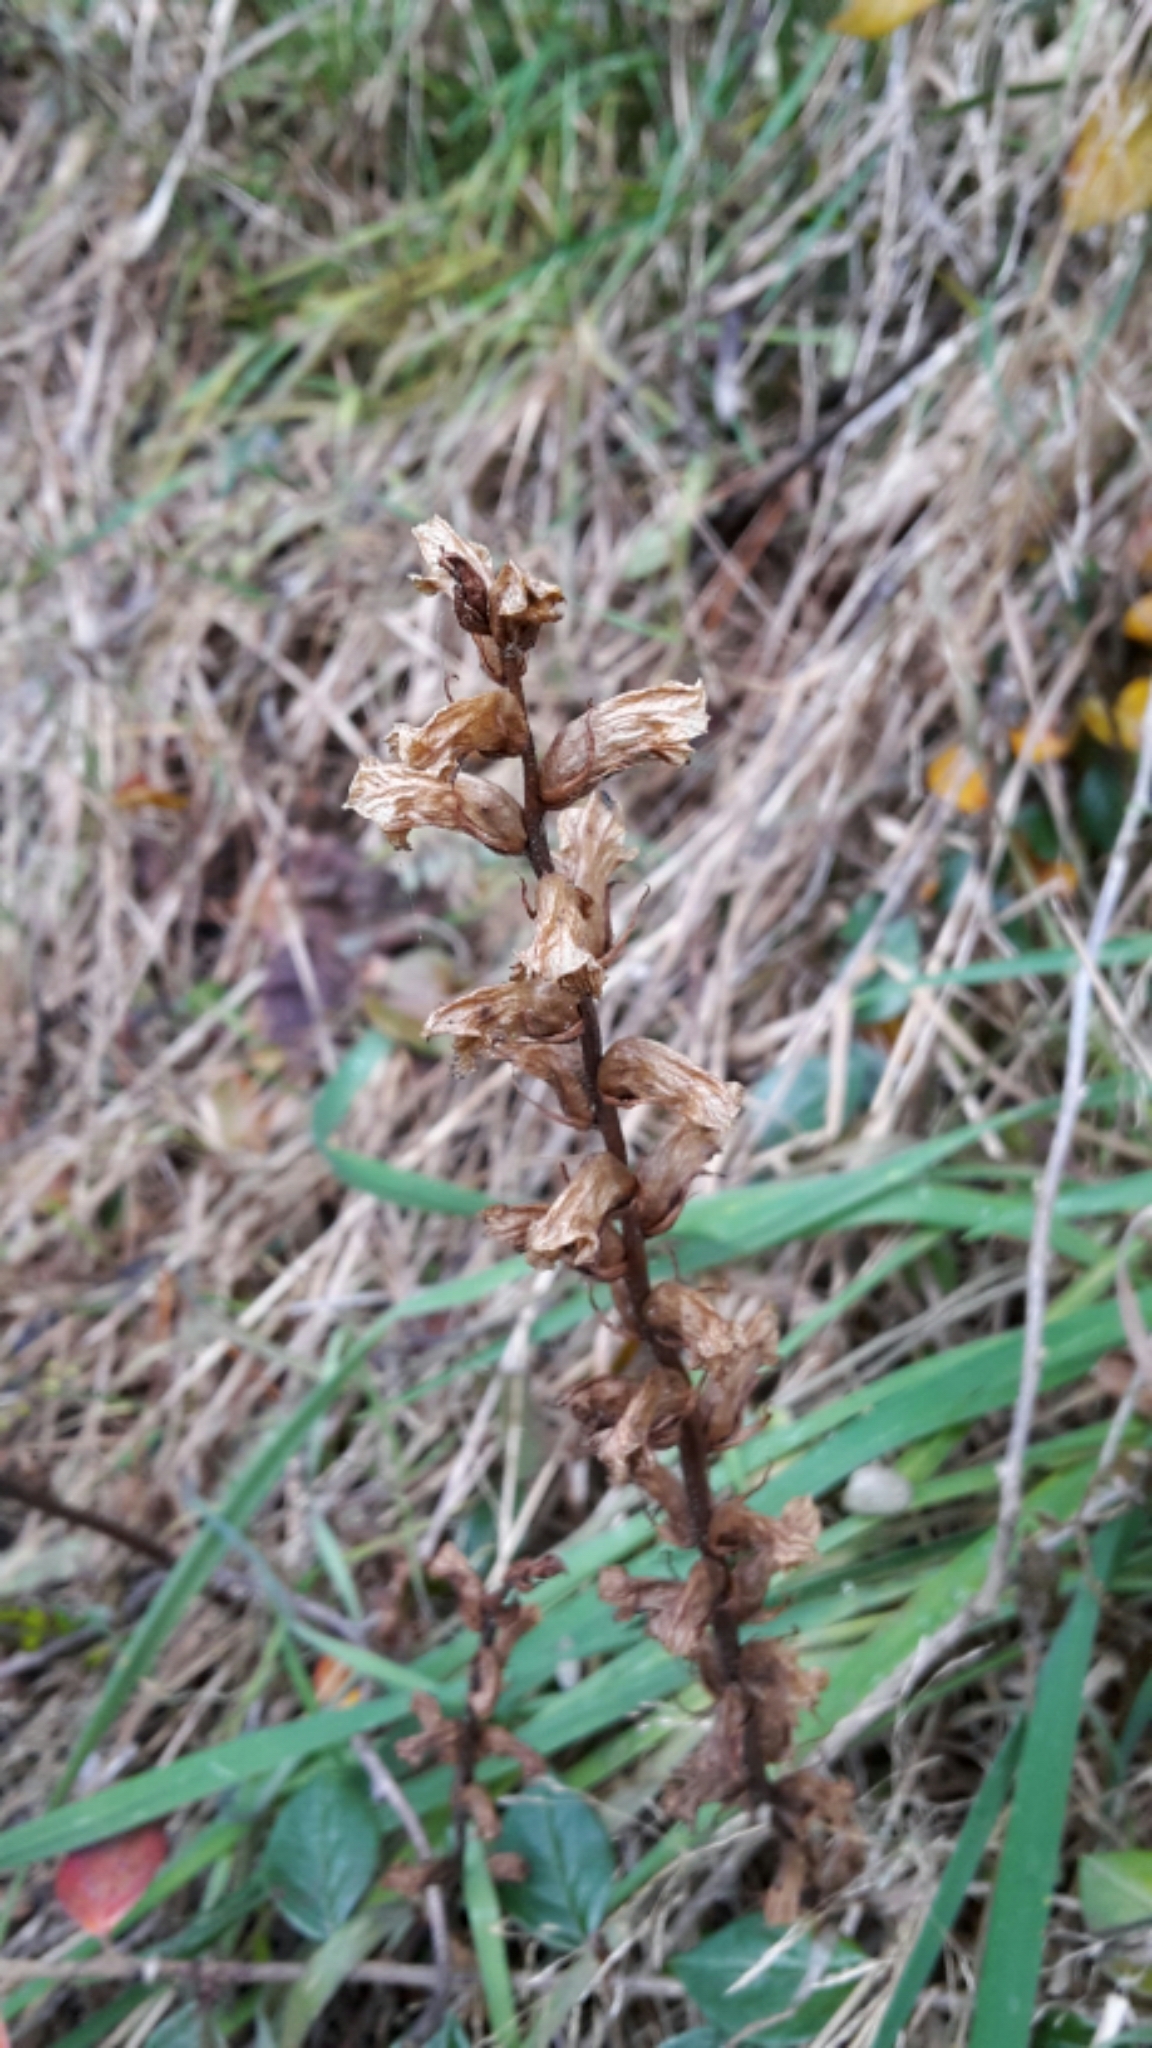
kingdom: Plantae
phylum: Tracheophyta
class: Magnoliopsida
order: Lamiales
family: Orobanchaceae
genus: Orobanche
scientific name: Orobanche minor
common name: Common broomrape
